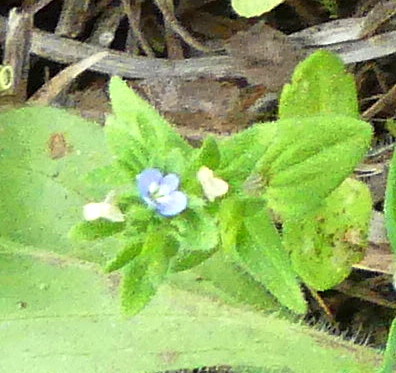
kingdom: Plantae
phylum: Tracheophyta
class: Magnoliopsida
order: Lamiales
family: Plantaginaceae
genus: Veronica
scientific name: Veronica arvensis
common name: Corn speedwell
